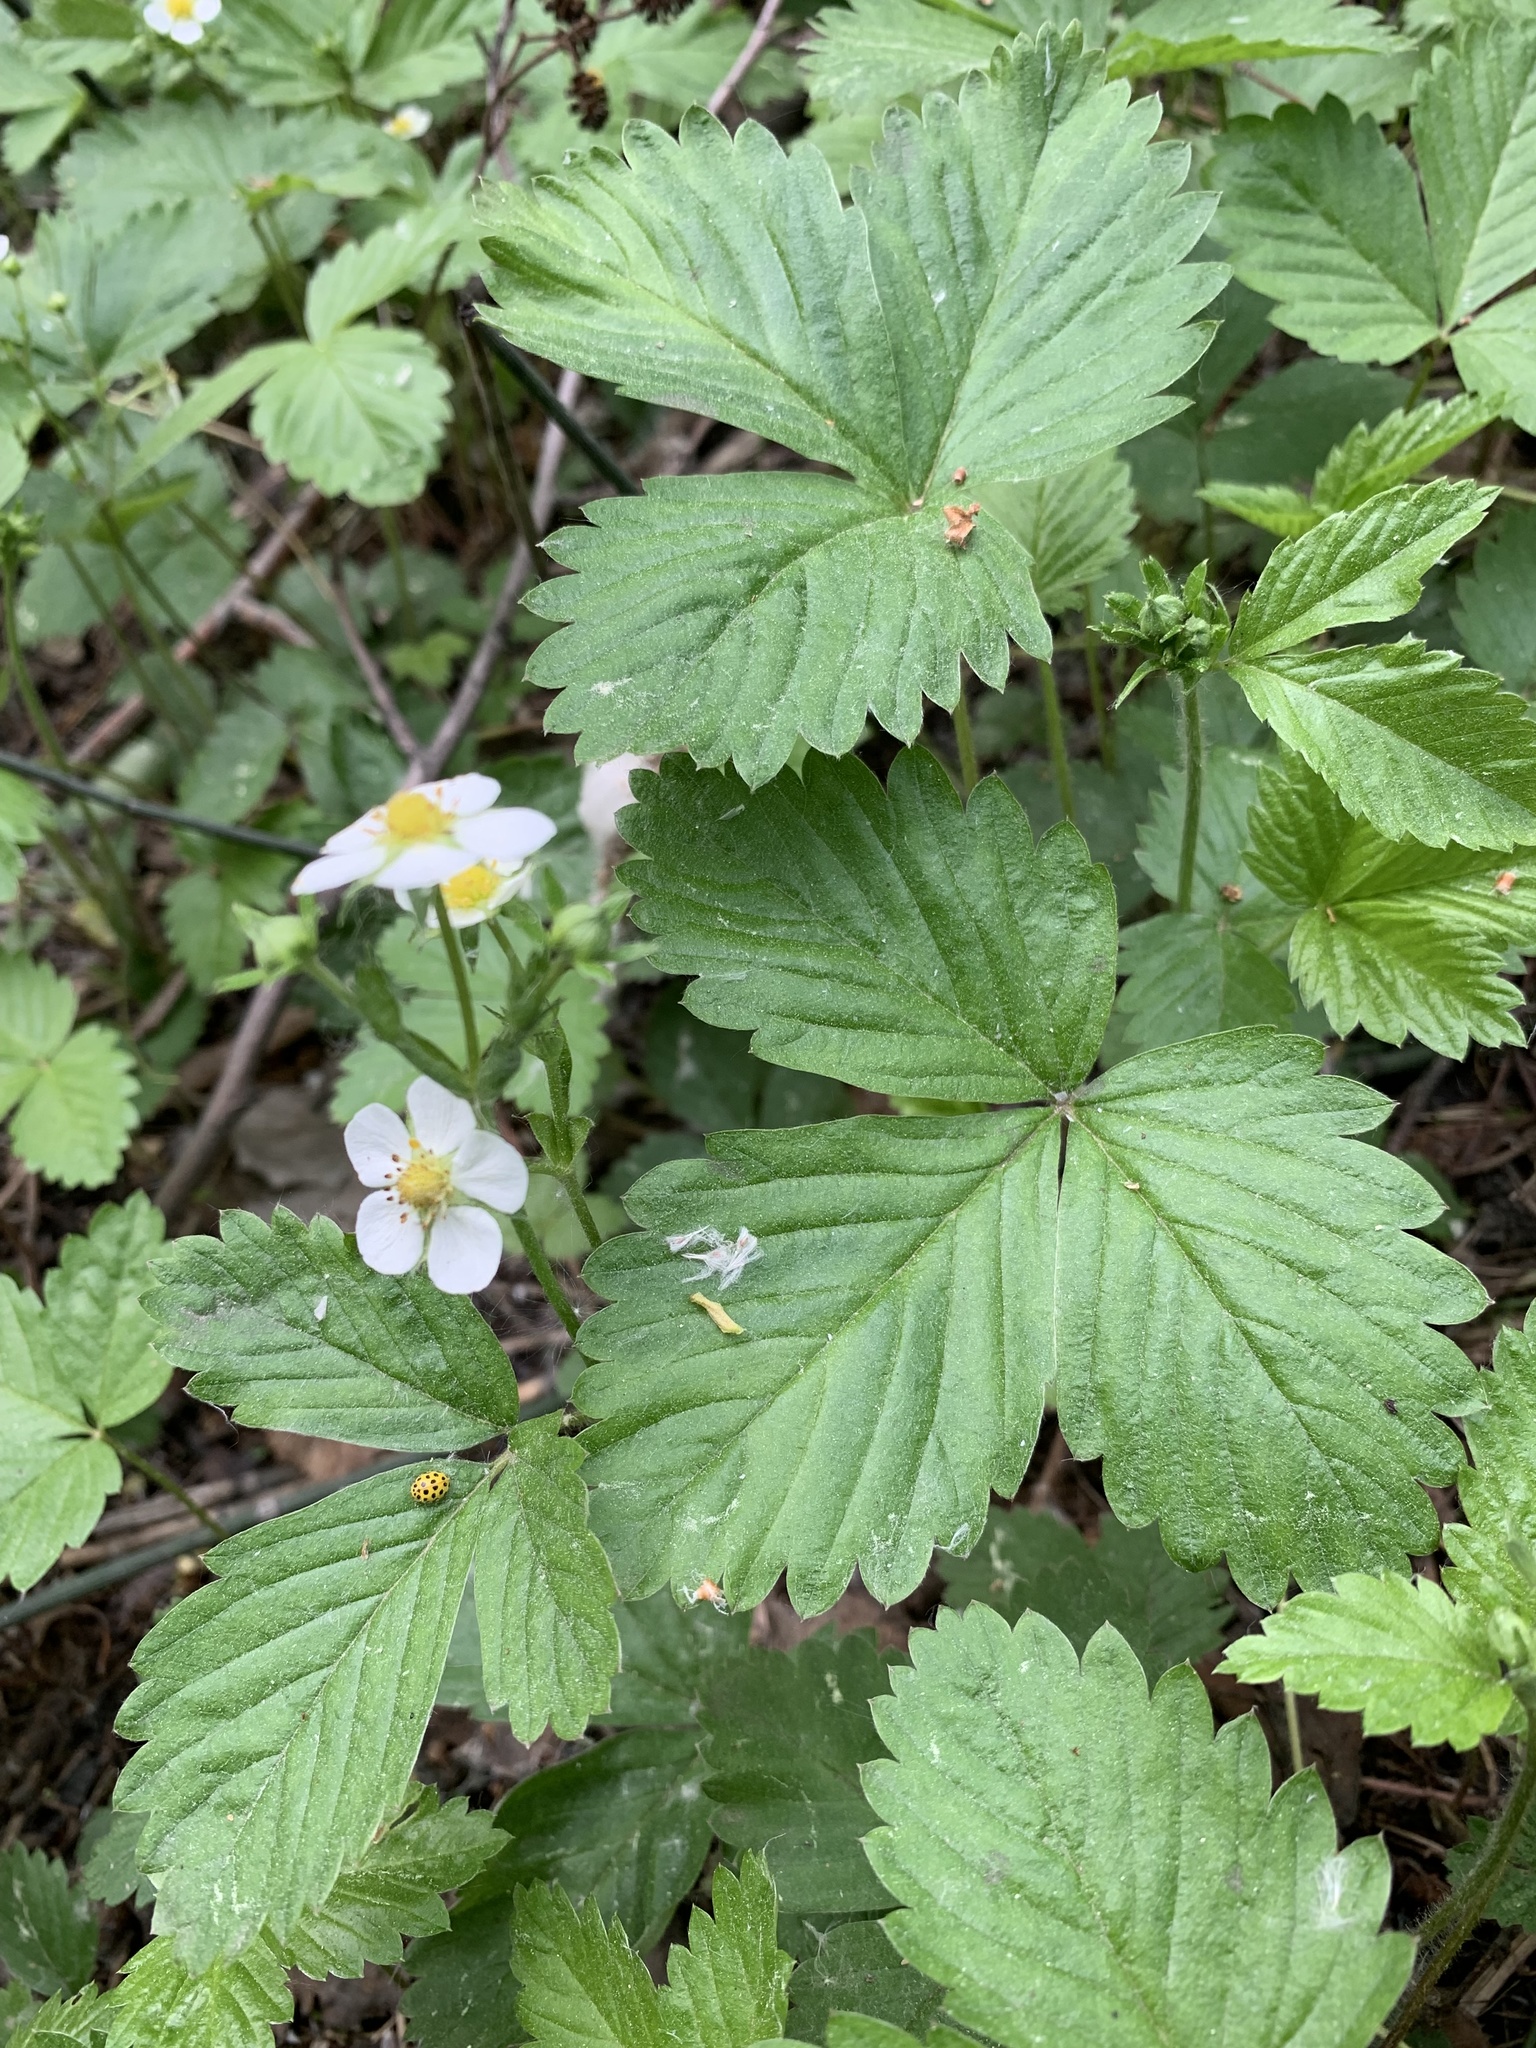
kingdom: Plantae
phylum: Tracheophyta
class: Magnoliopsida
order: Rosales
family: Rosaceae
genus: Fragaria
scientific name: Fragaria vesca
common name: Wild strawberry
